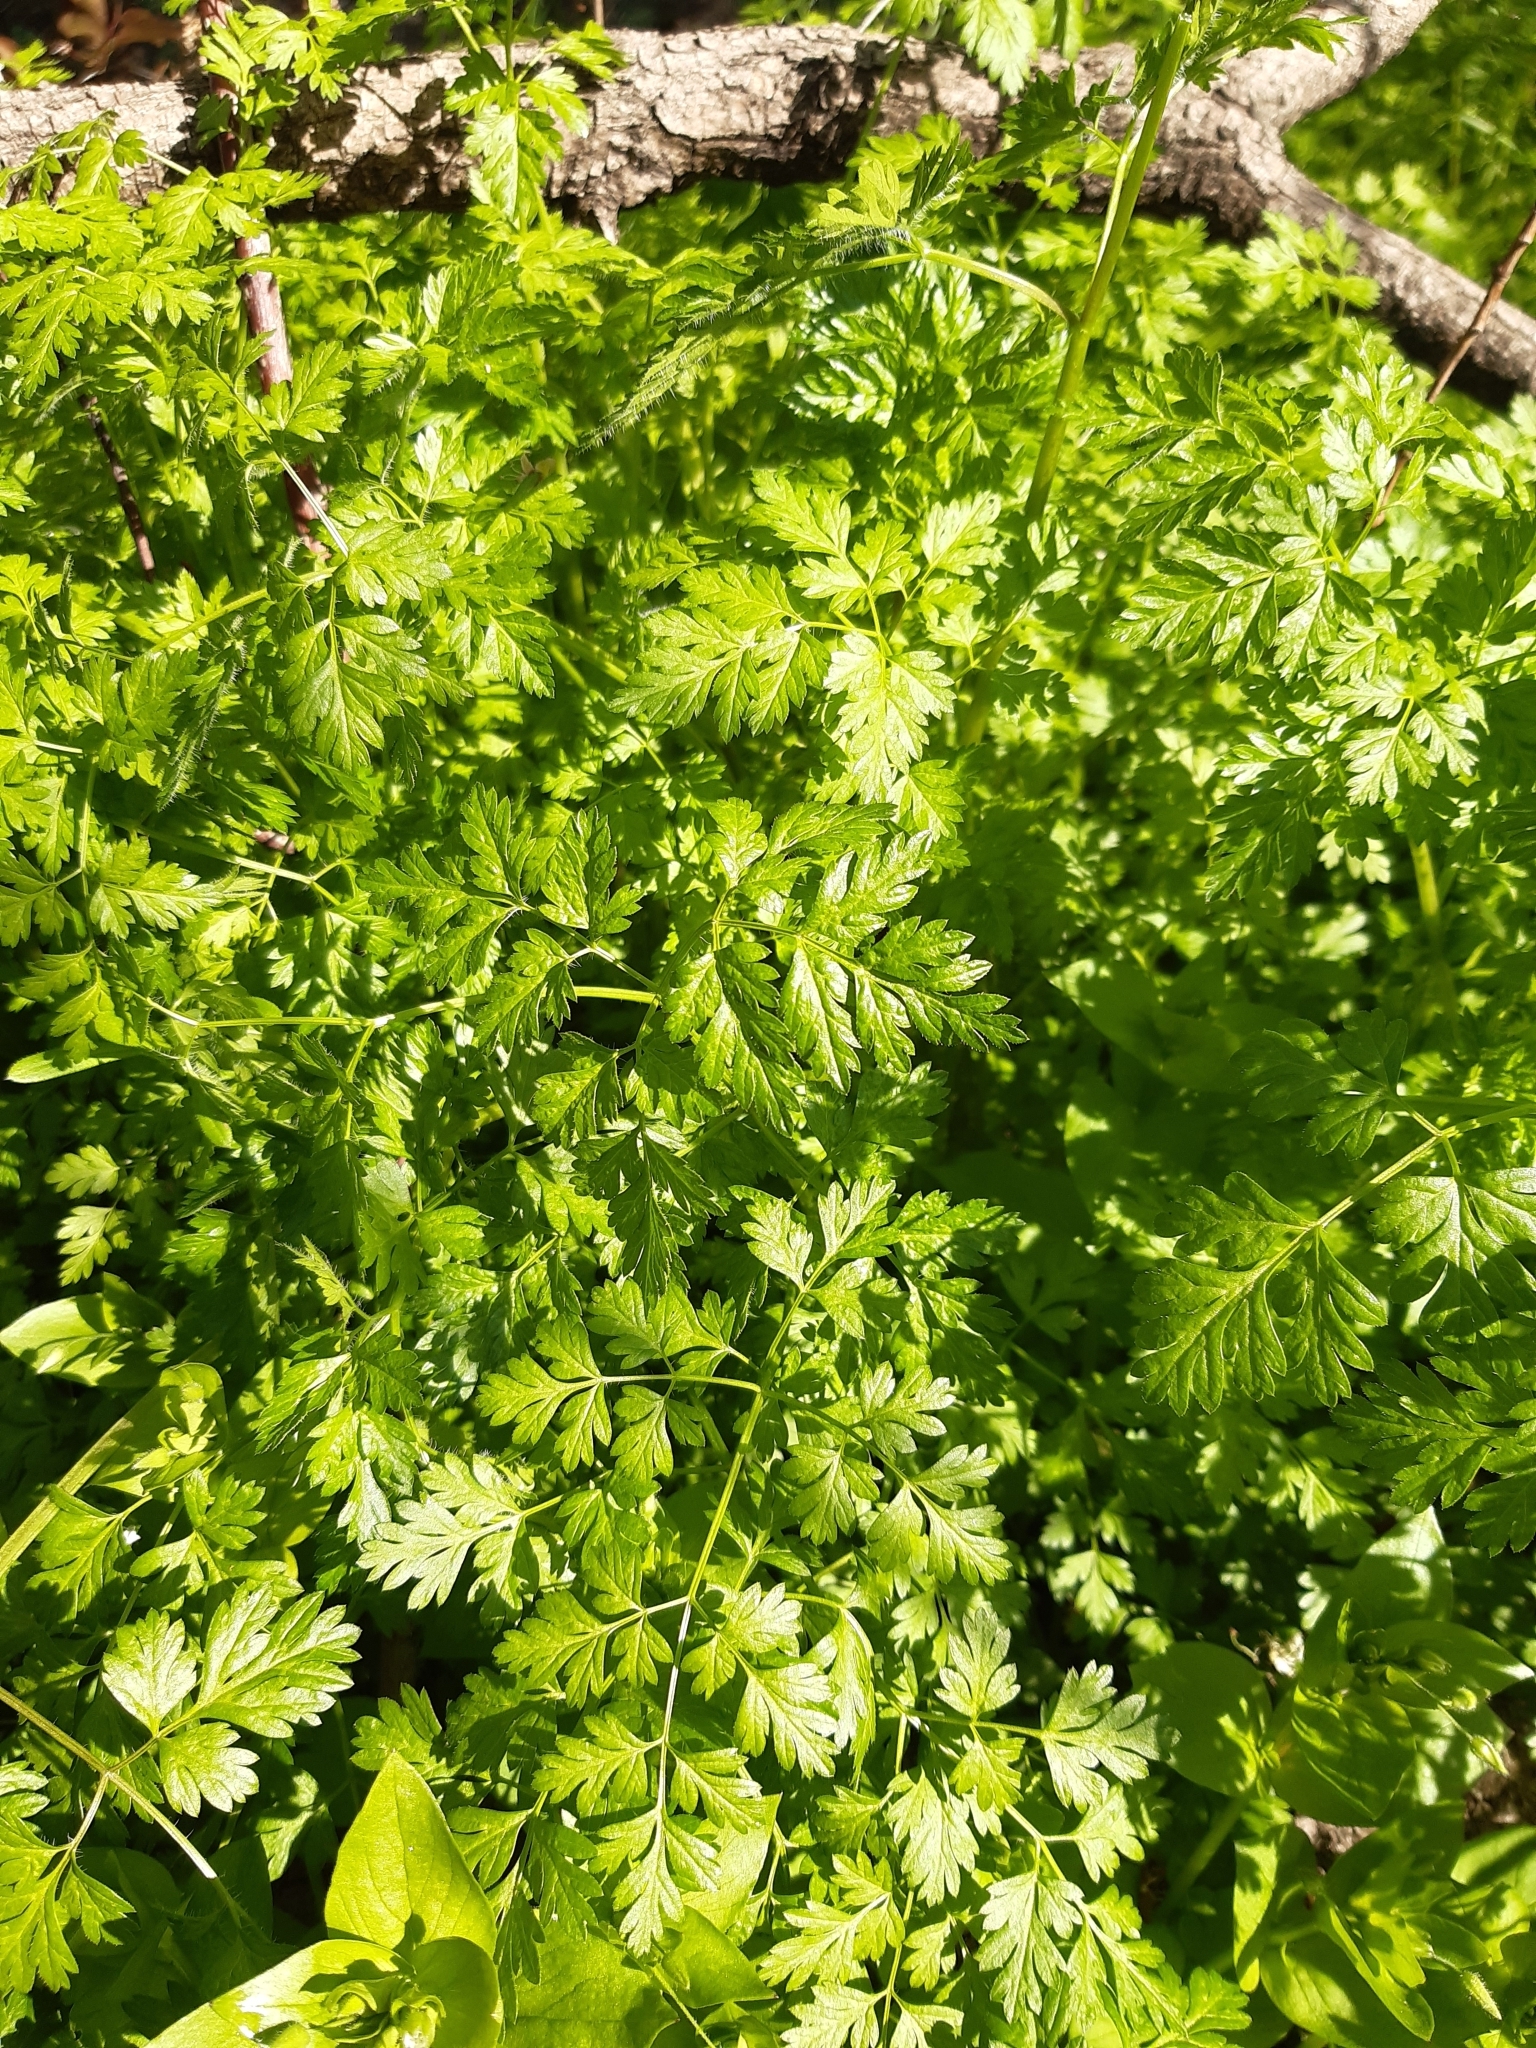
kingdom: Plantae
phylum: Tracheophyta
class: Magnoliopsida
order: Apiales
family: Apiaceae
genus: Anthriscus
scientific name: Anthriscus cerefolium
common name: Garden chervil
